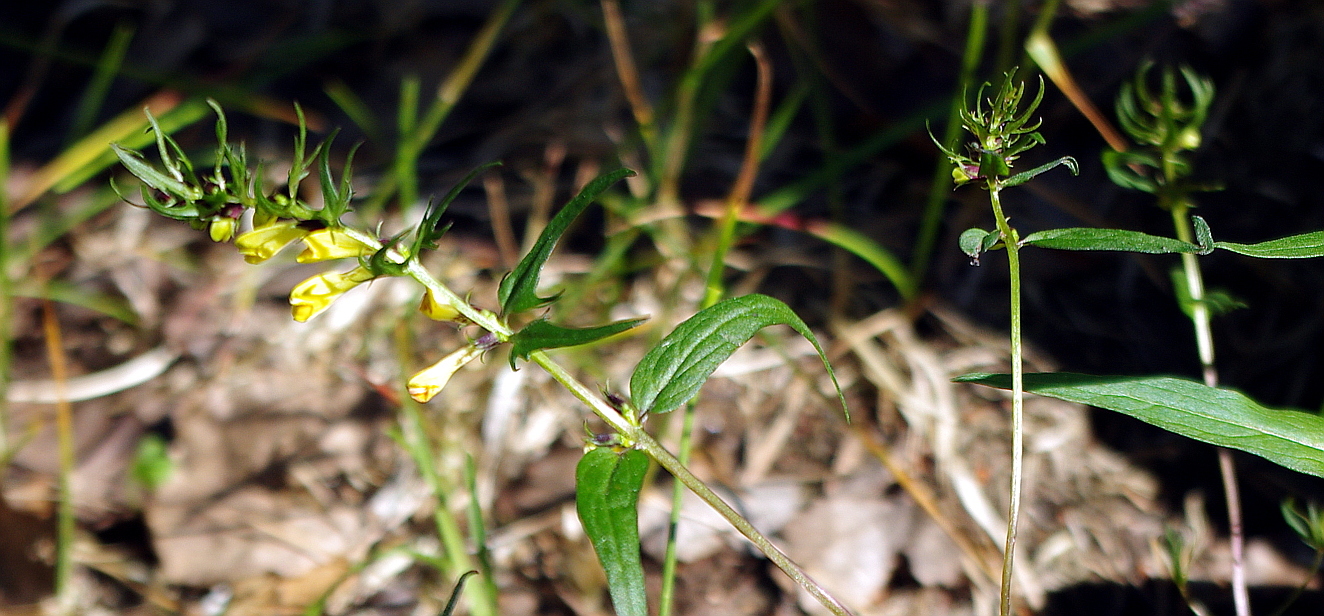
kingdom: Plantae
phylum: Tracheophyta
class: Magnoliopsida
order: Lamiales
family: Orobanchaceae
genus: Melampyrum
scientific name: Melampyrum pratense
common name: Common cow-wheat
